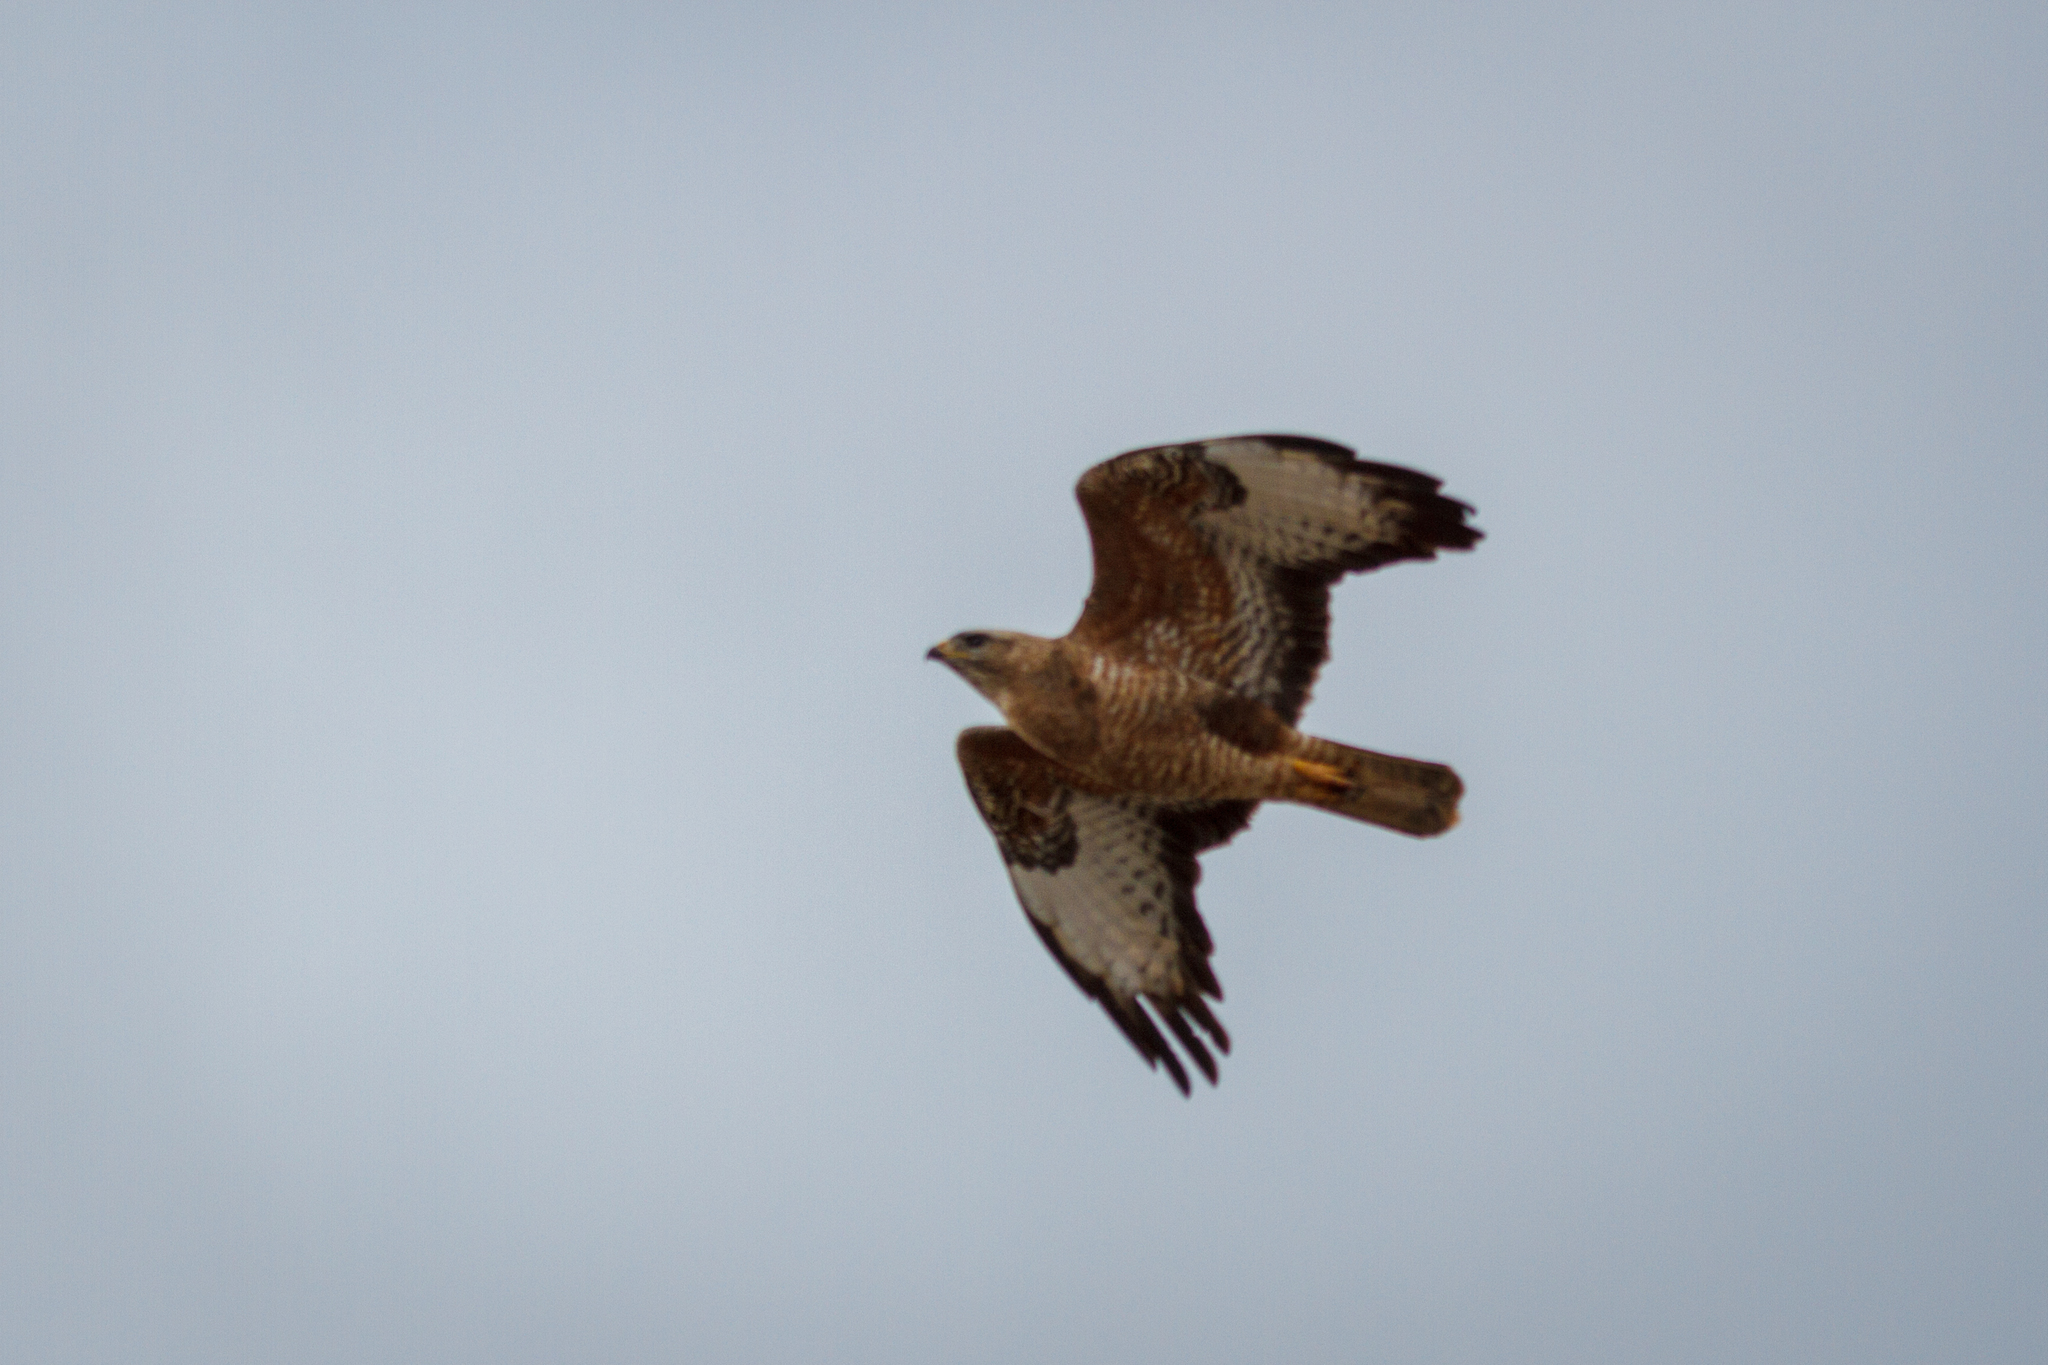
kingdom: Animalia
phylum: Chordata
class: Aves
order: Accipitriformes
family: Accipitridae
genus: Buteo
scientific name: Buteo buteo
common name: Common buzzard
